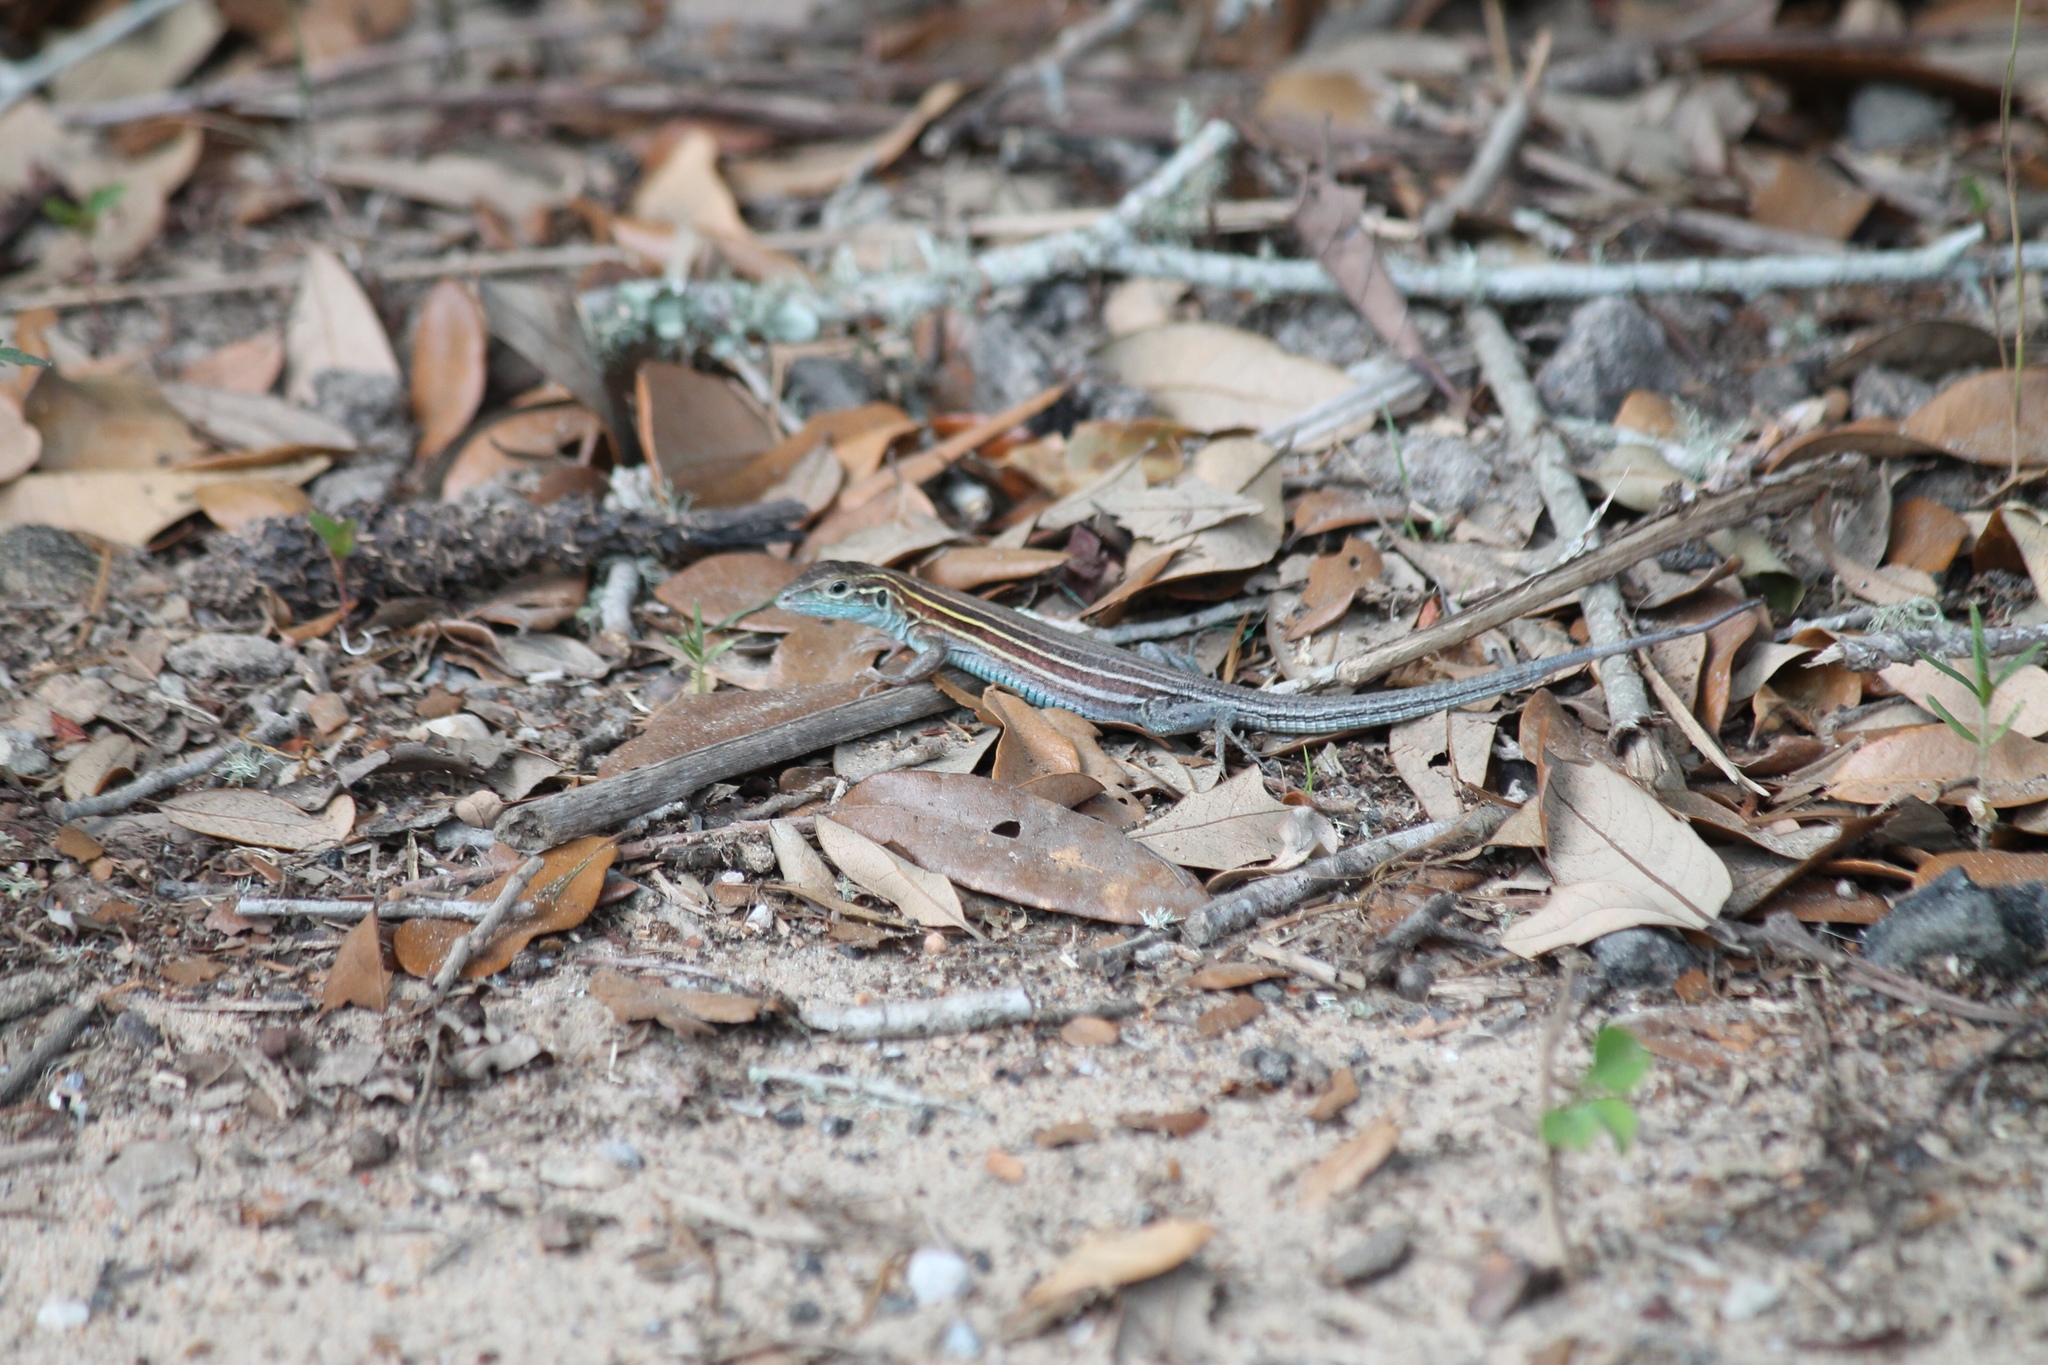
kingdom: Animalia
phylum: Chordata
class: Squamata
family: Teiidae
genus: Aspidoscelis
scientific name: Aspidoscelis sexlineatus
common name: Six-lined racerunner
